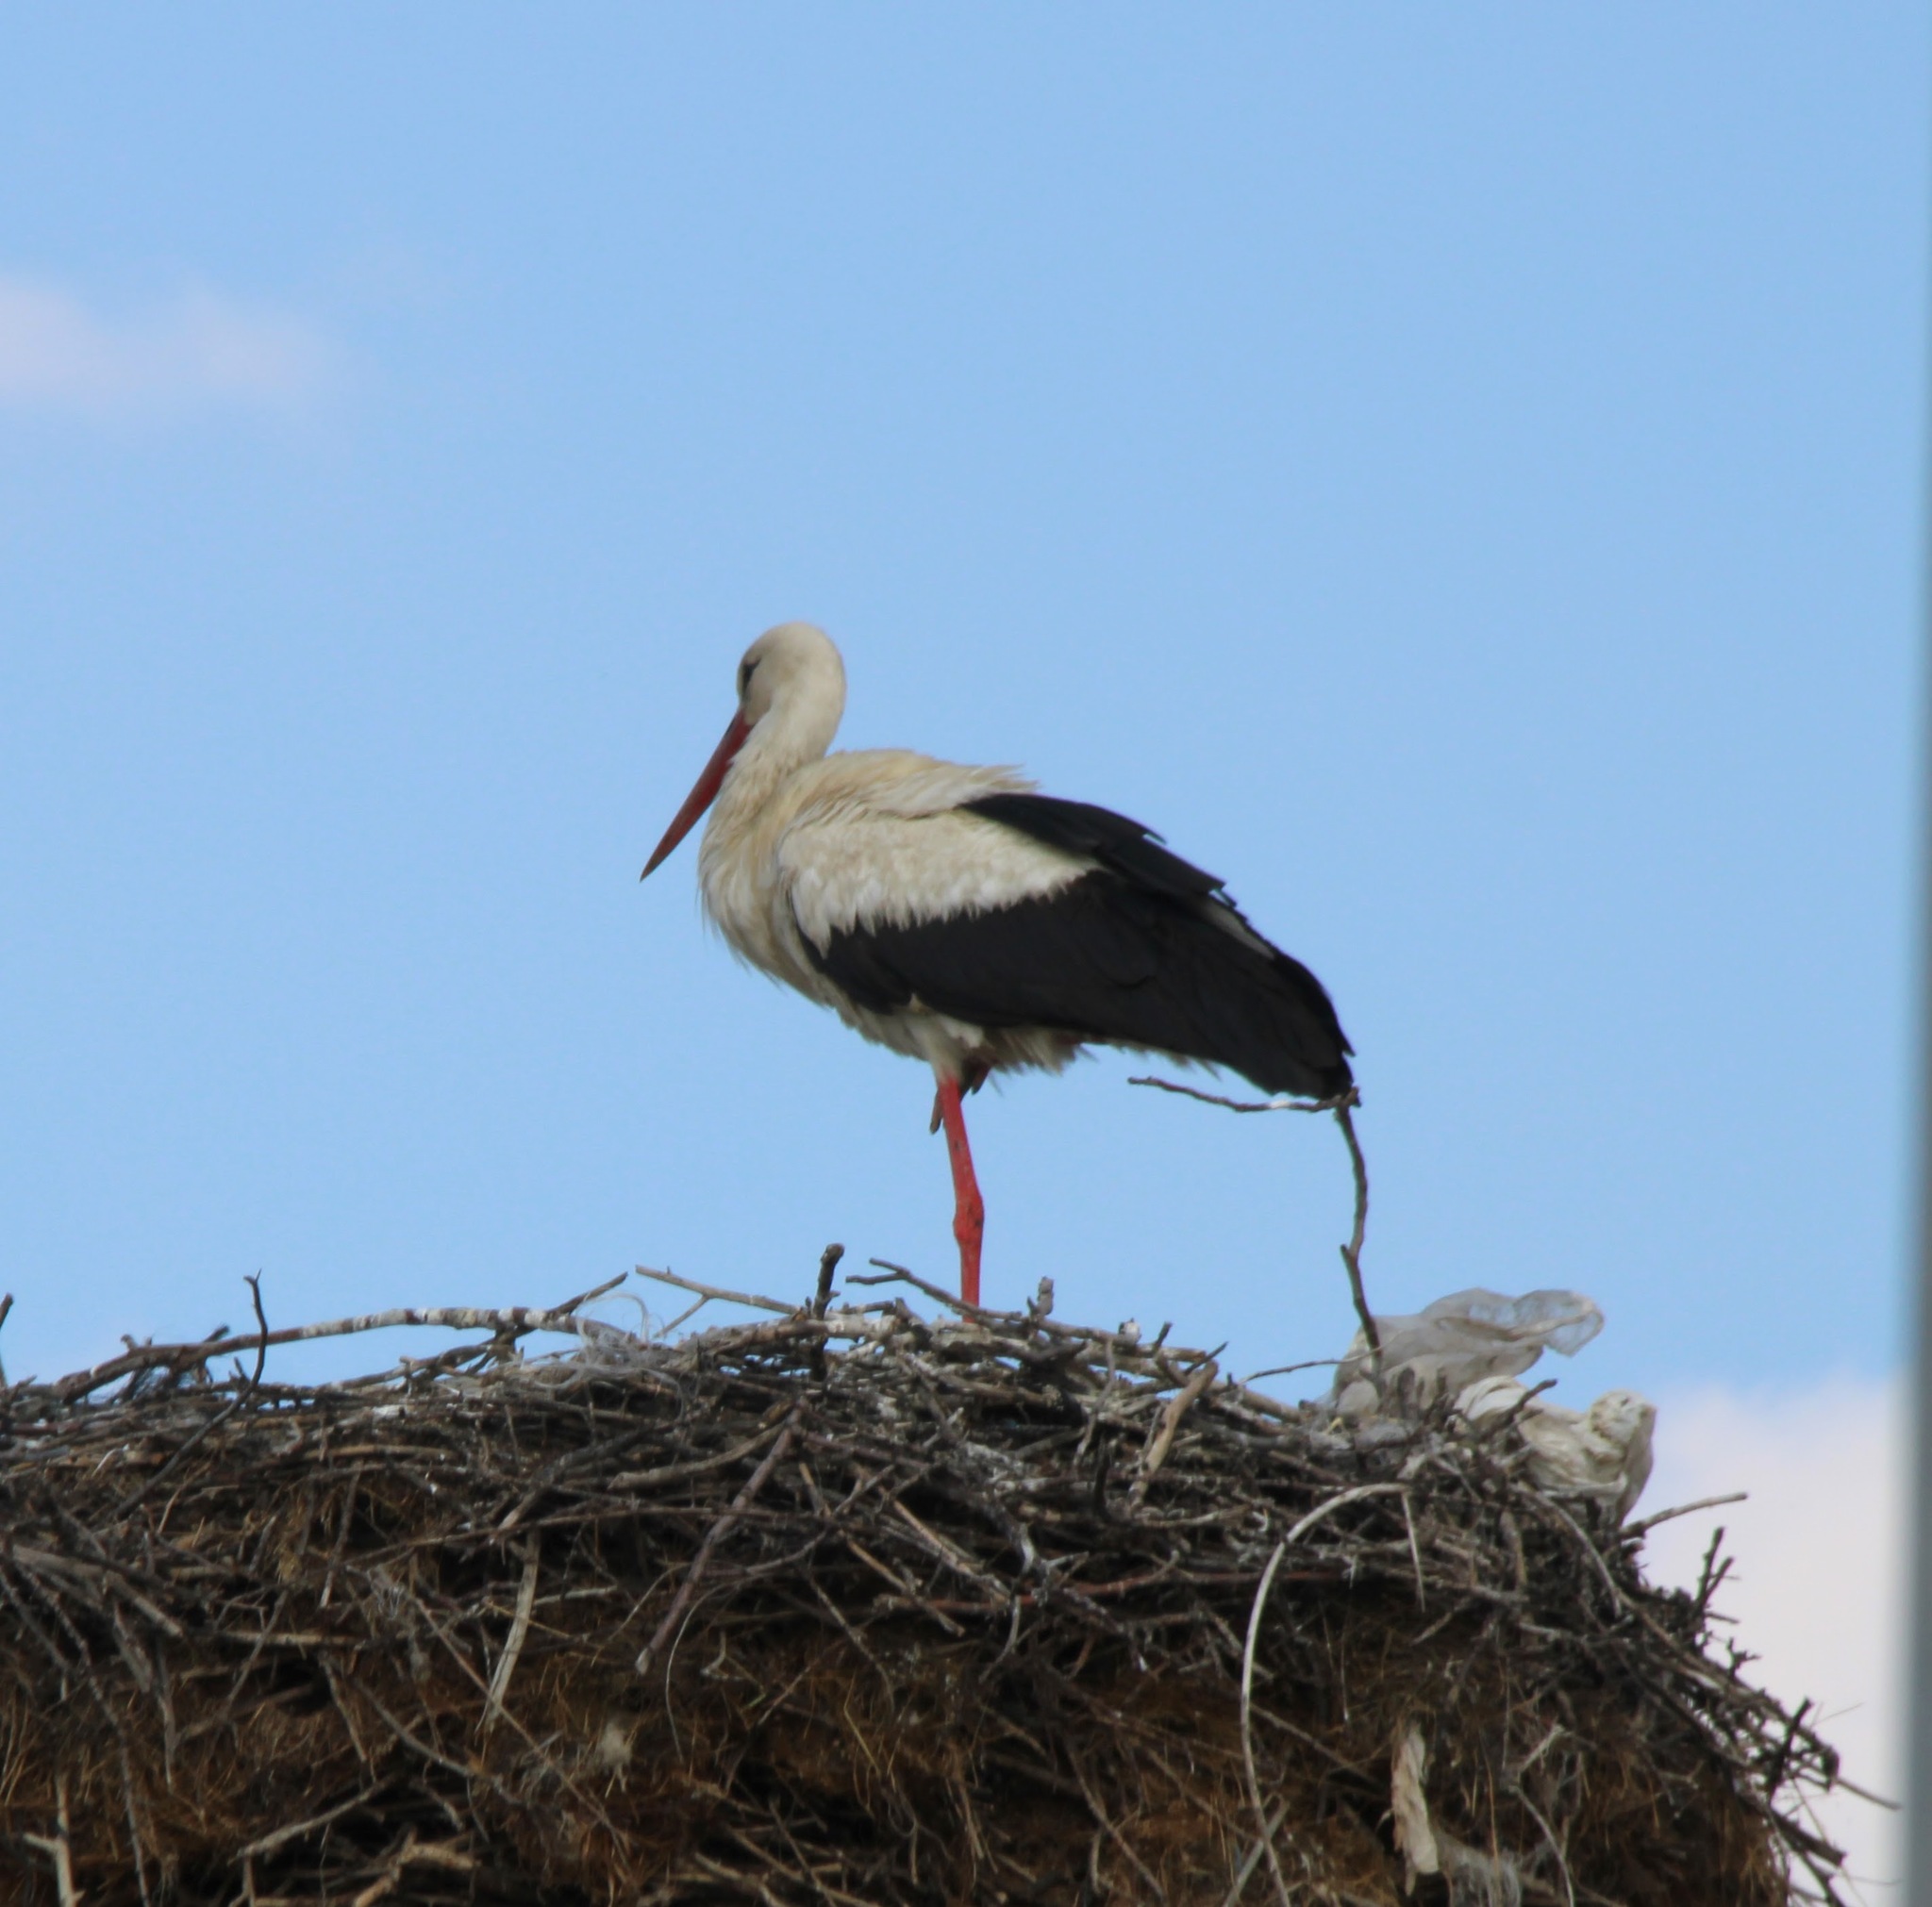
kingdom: Animalia
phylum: Chordata
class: Aves
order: Ciconiiformes
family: Ciconiidae
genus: Ciconia
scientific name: Ciconia ciconia
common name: White stork
